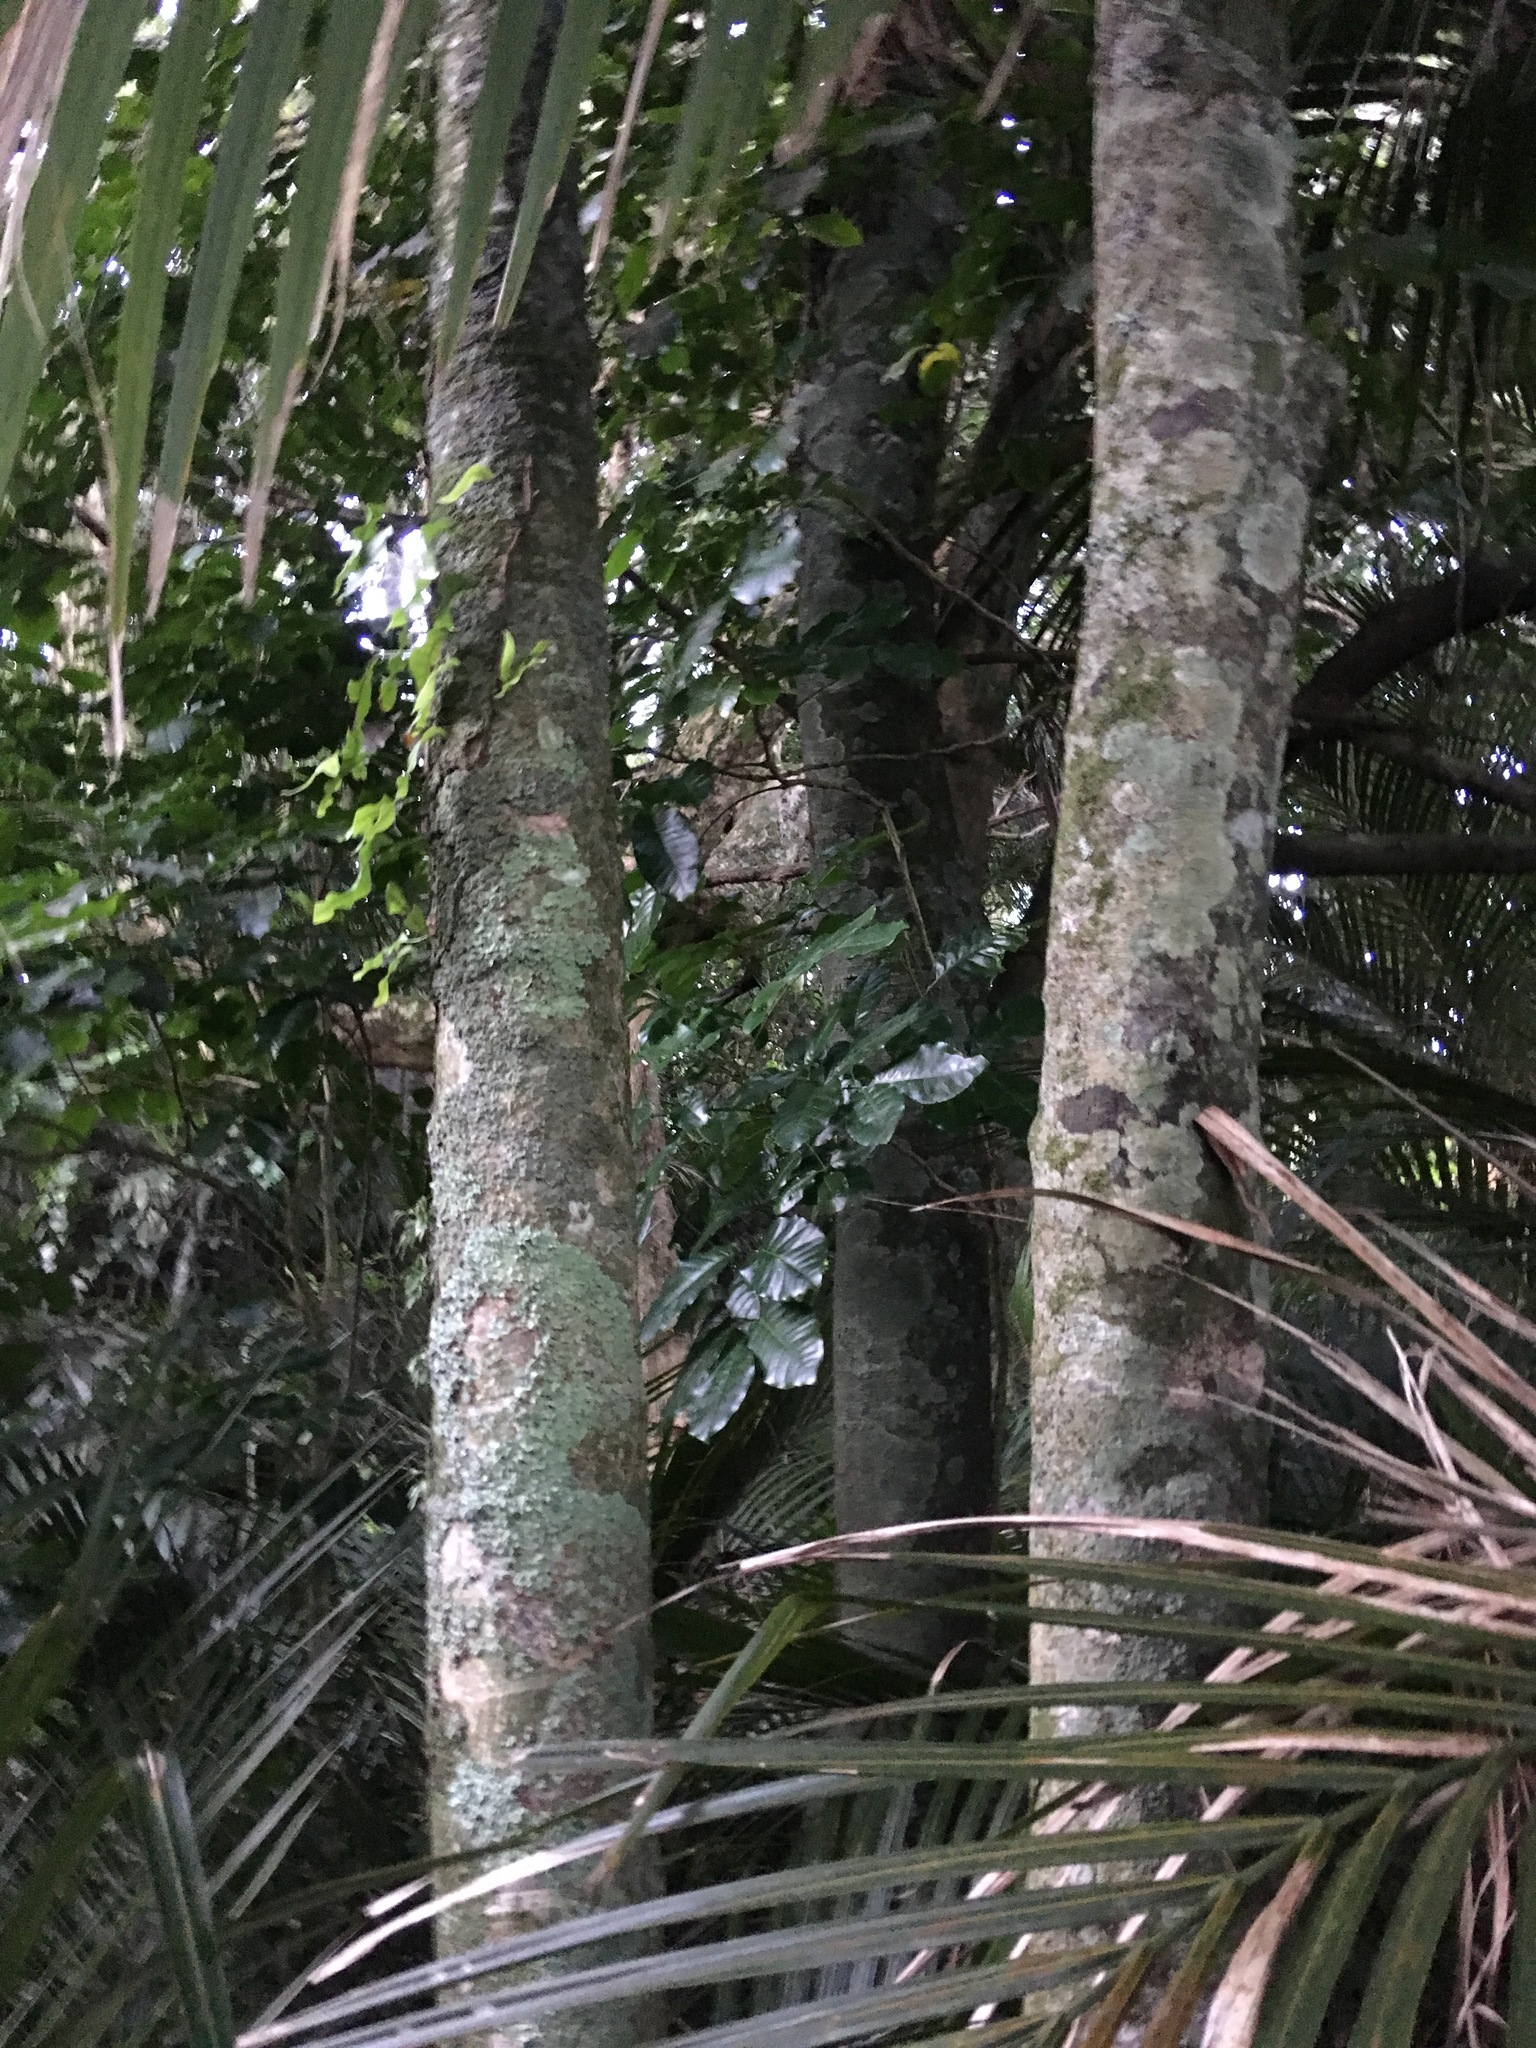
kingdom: Plantae
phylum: Tracheophyta
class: Magnoliopsida
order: Sapindales
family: Meliaceae
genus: Didymocheton
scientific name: Didymocheton spectabilis
